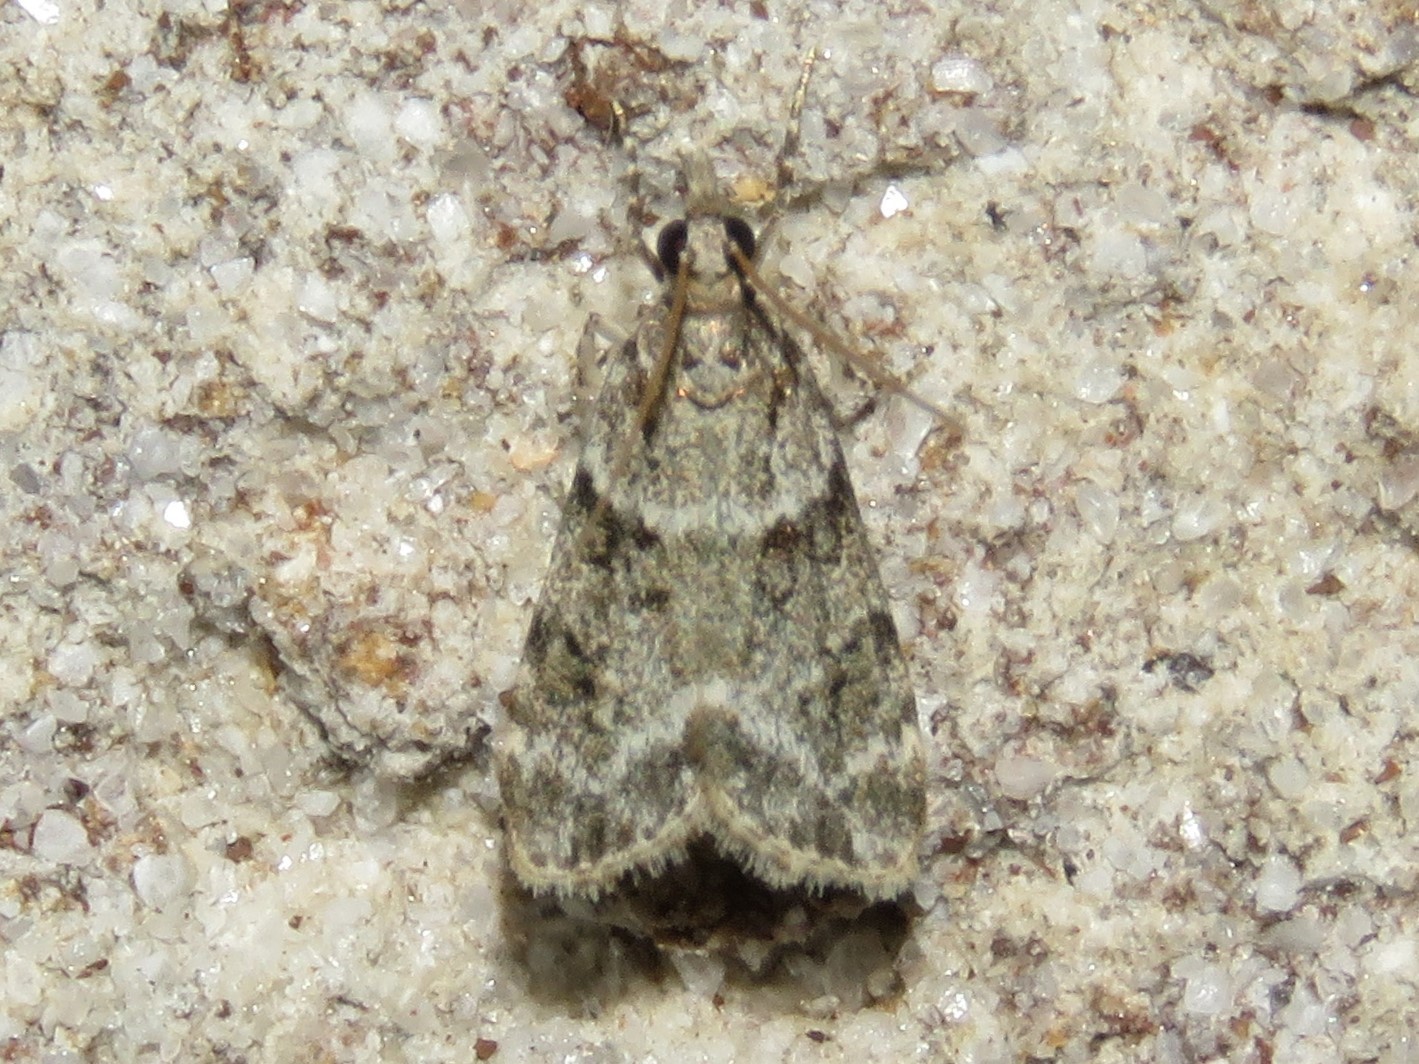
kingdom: Animalia
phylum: Arthropoda
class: Insecta
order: Lepidoptera
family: Crambidae
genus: Scoparia
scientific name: Scoparia biplagialis
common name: Double-striped scoparia moth
